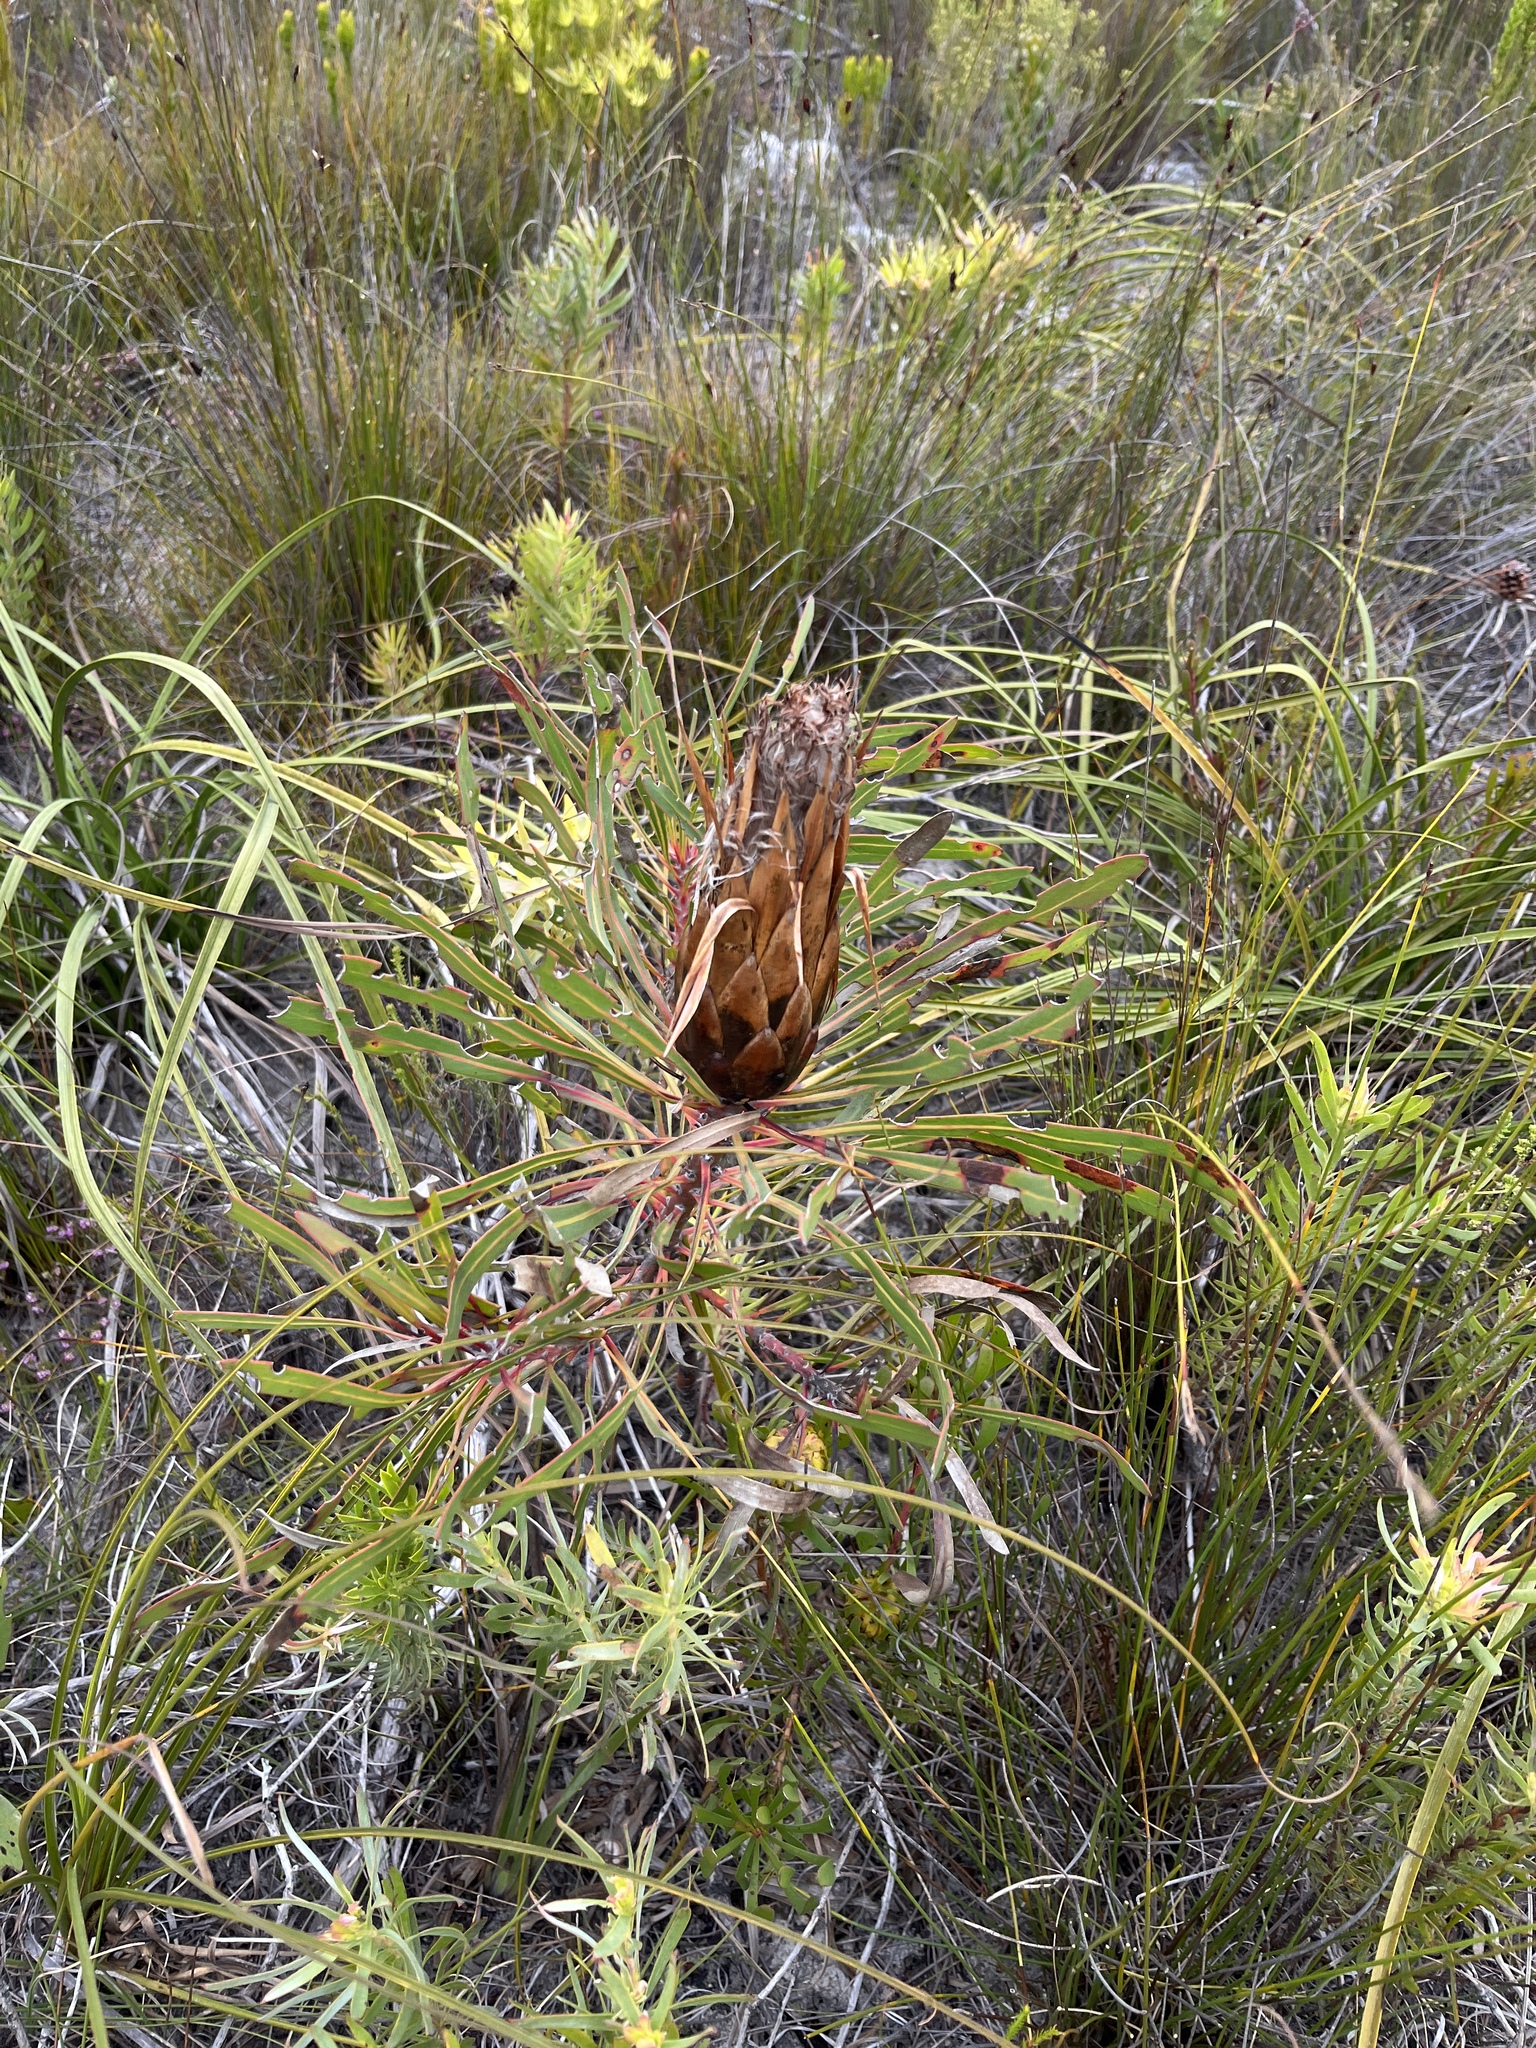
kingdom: Plantae
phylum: Tracheophyta
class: Magnoliopsida
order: Proteales
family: Proteaceae
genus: Protea
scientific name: Protea longifolia
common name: Long-leaf sugarbush
